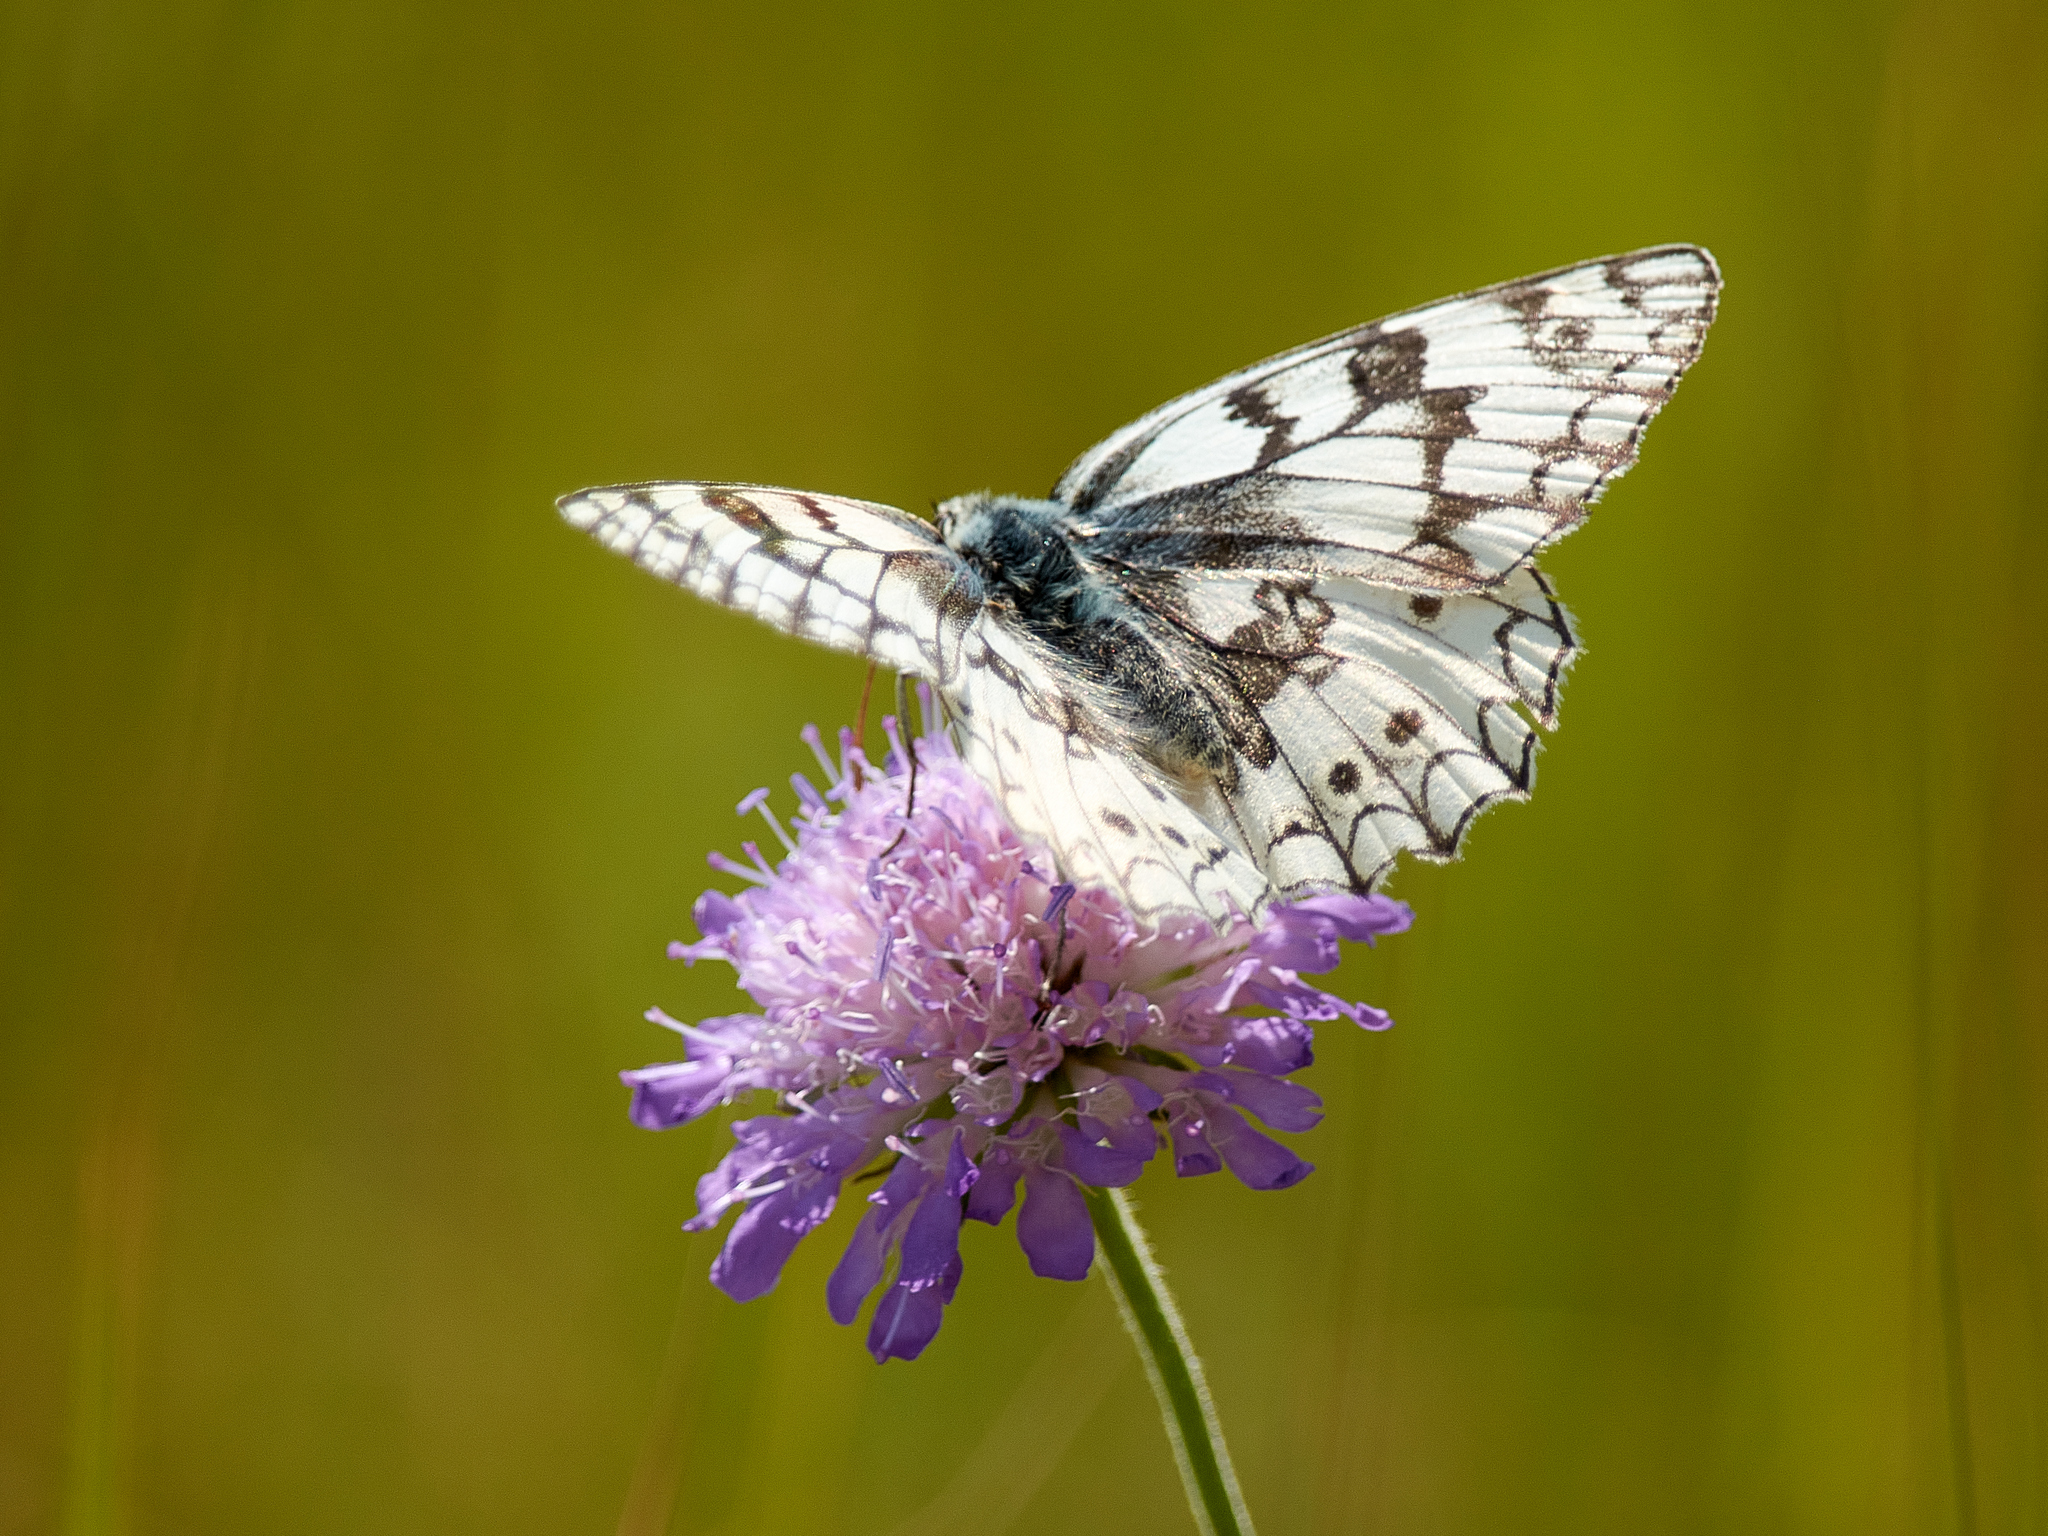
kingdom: Animalia
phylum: Arthropoda
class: Insecta
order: Lepidoptera
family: Nymphalidae
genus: Melanargia
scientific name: Melanargia japygia
